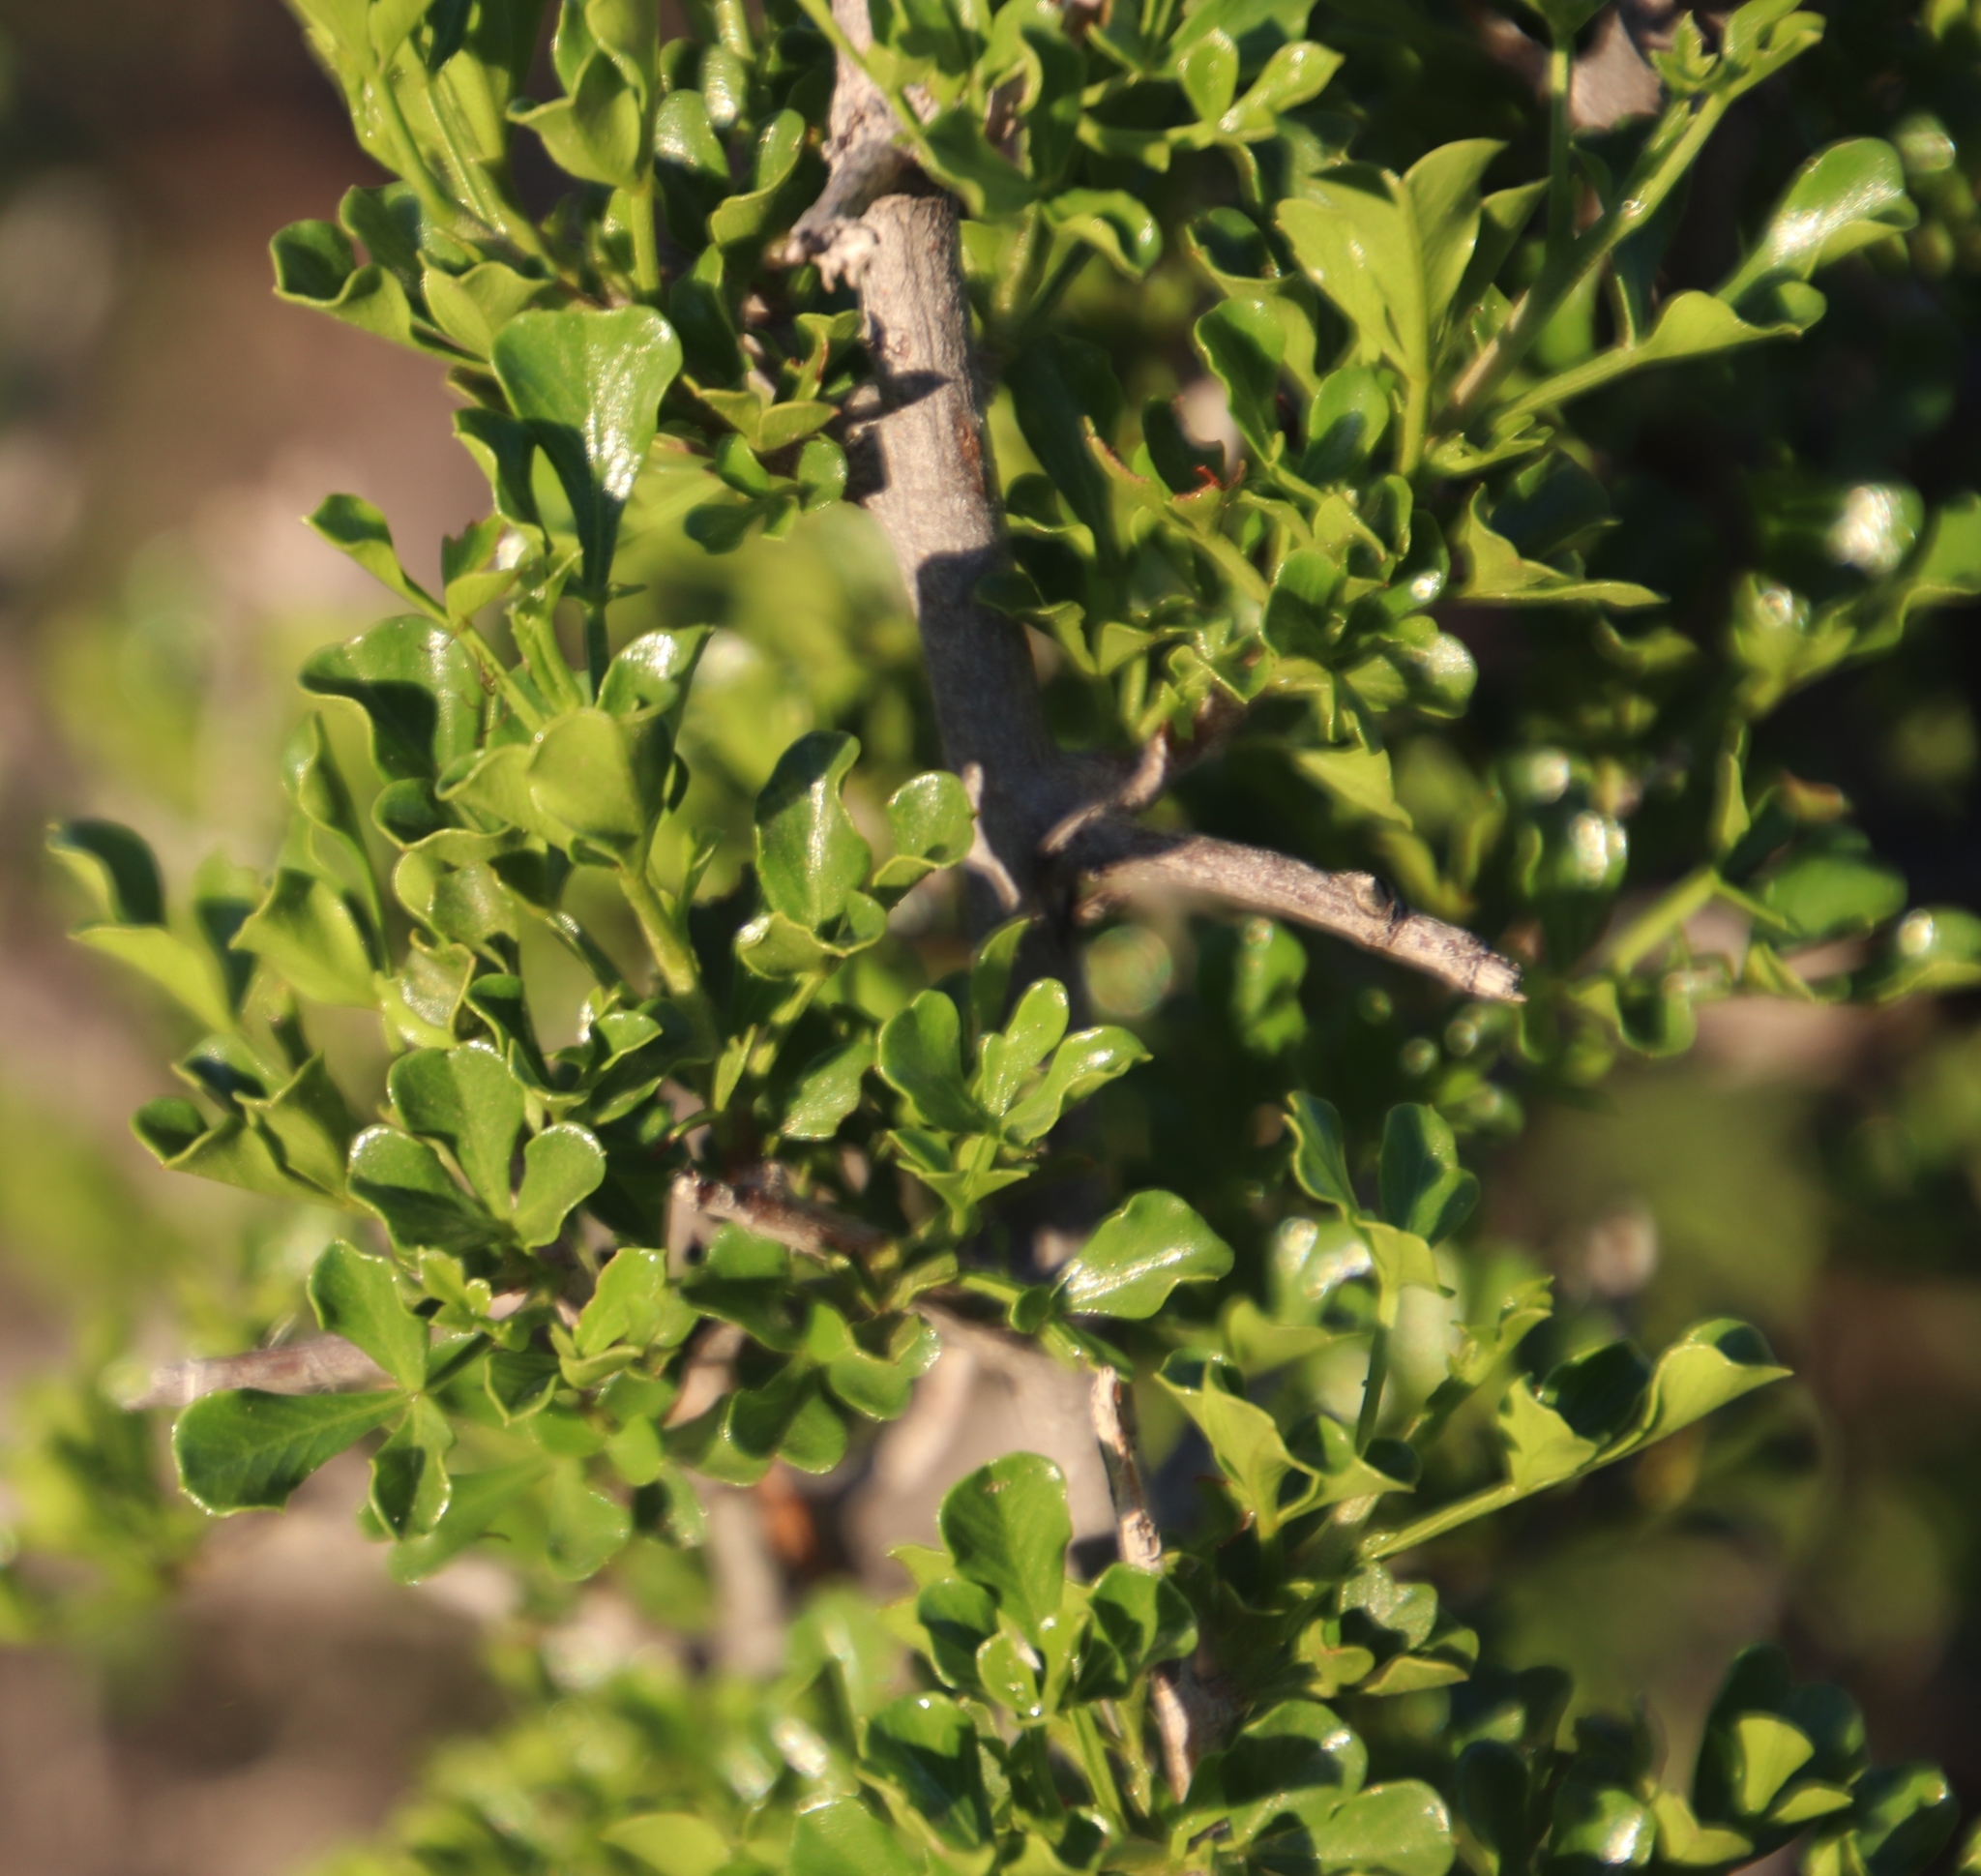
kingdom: Plantae
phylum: Tracheophyta
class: Magnoliopsida
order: Sapindales
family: Anacardiaceae
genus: Searsia
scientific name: Searsia burchellii
